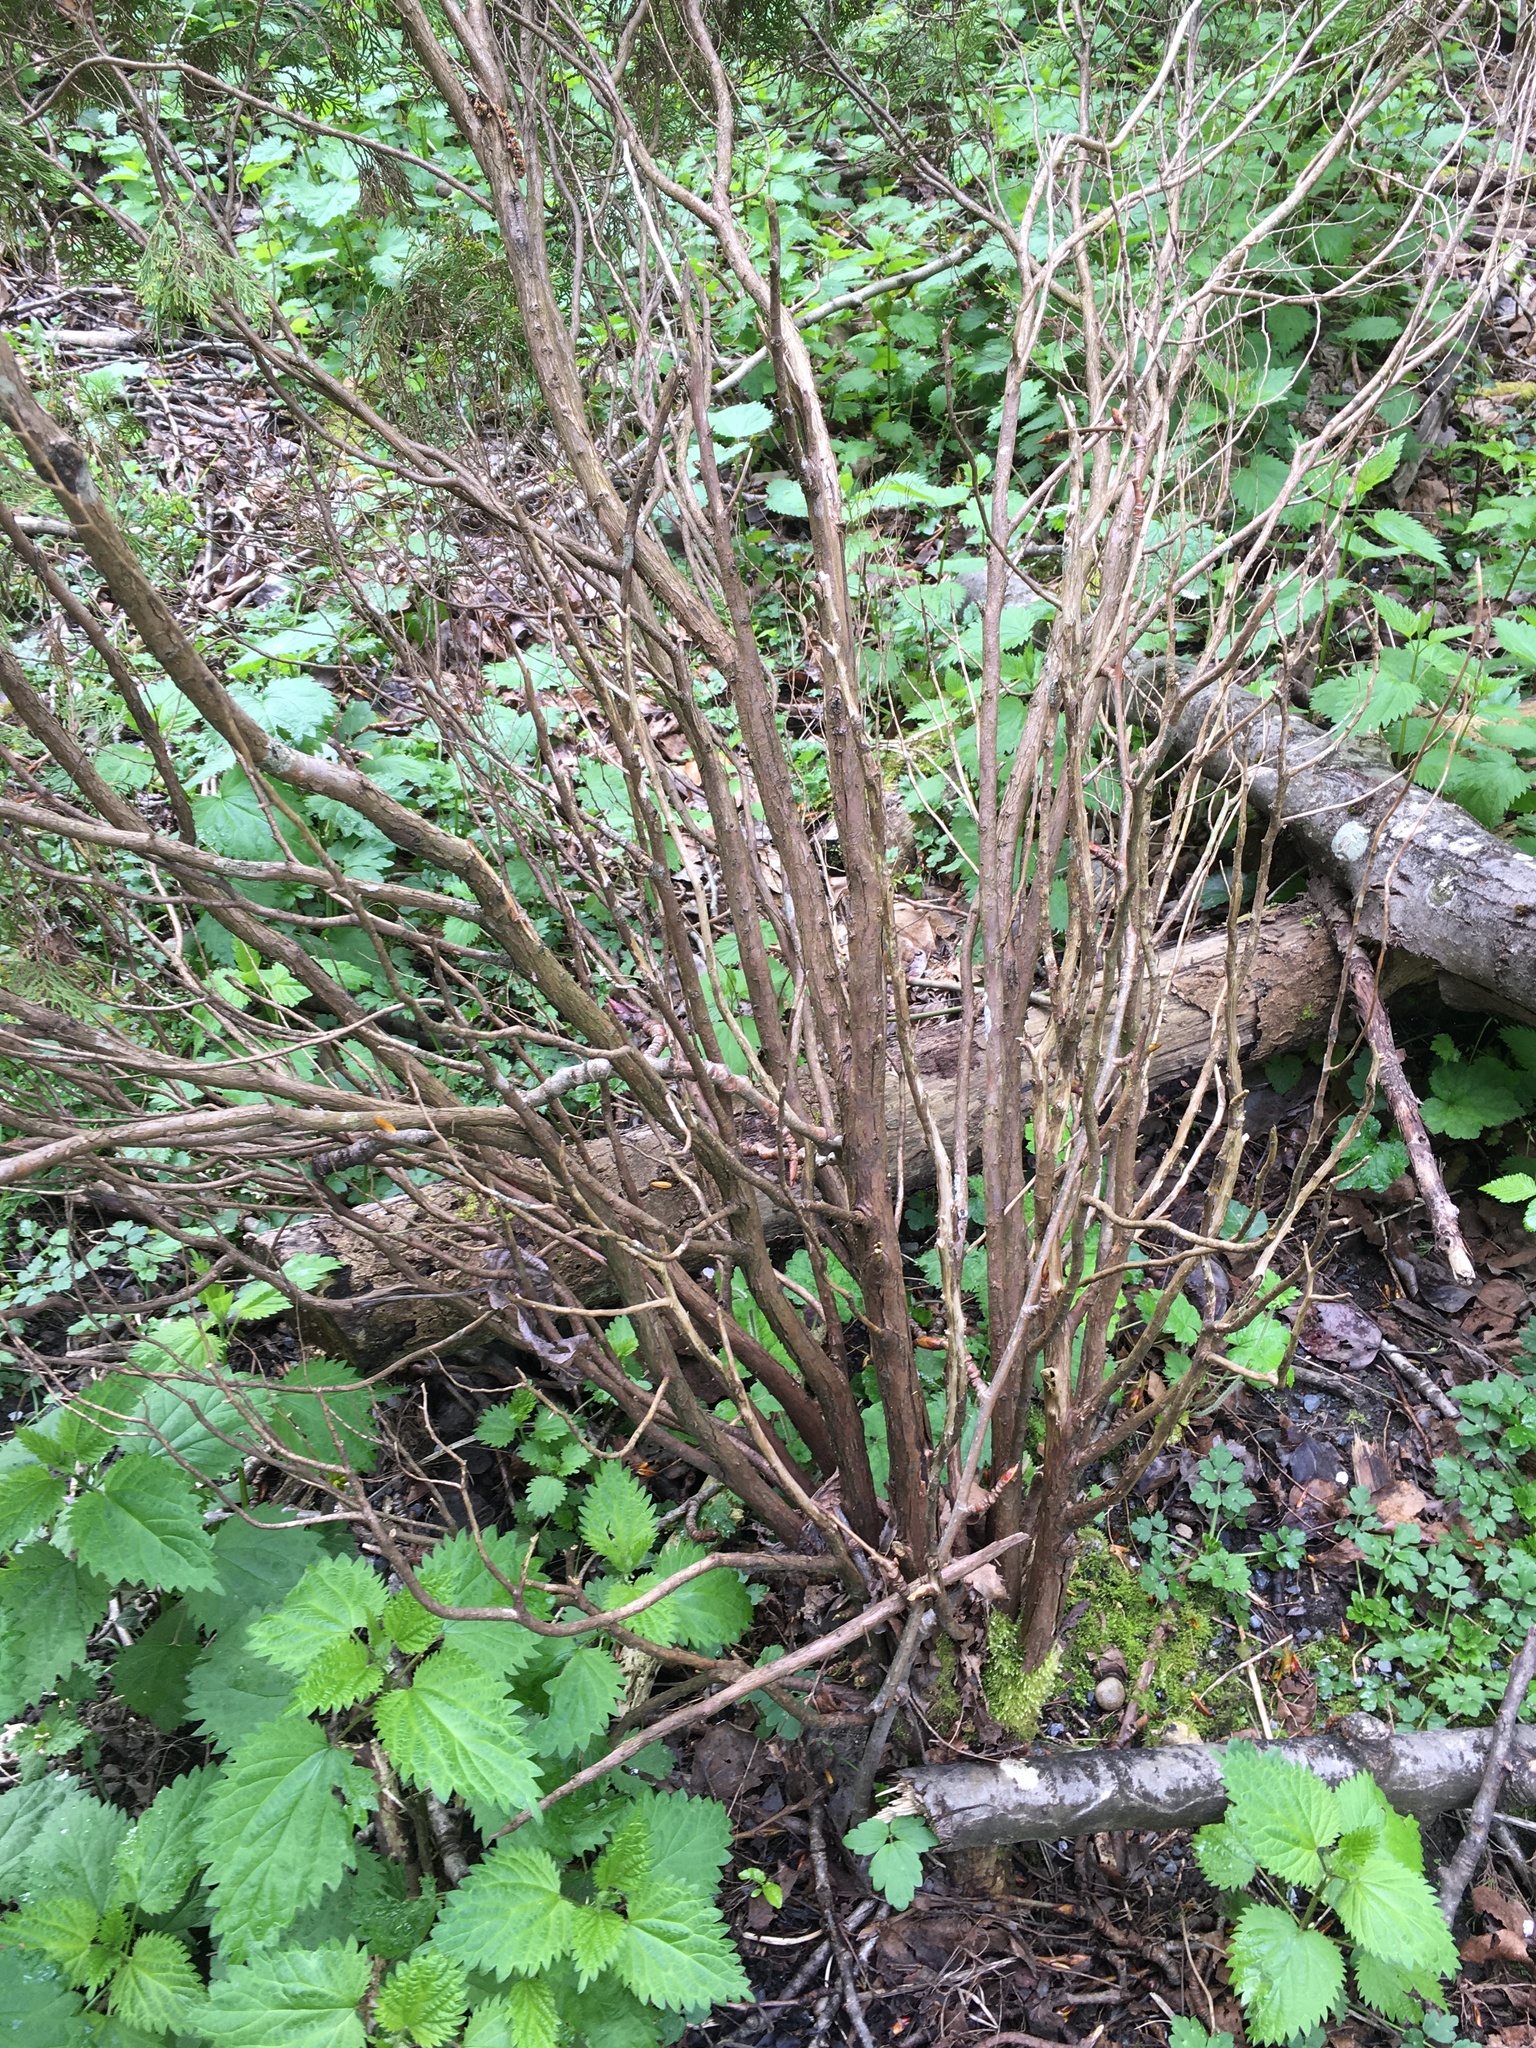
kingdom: Plantae
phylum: Tracheophyta
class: Pinopsida
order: Pinales
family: Cupressaceae
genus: Thuja
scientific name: Thuja plicata
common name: Western red-cedar
